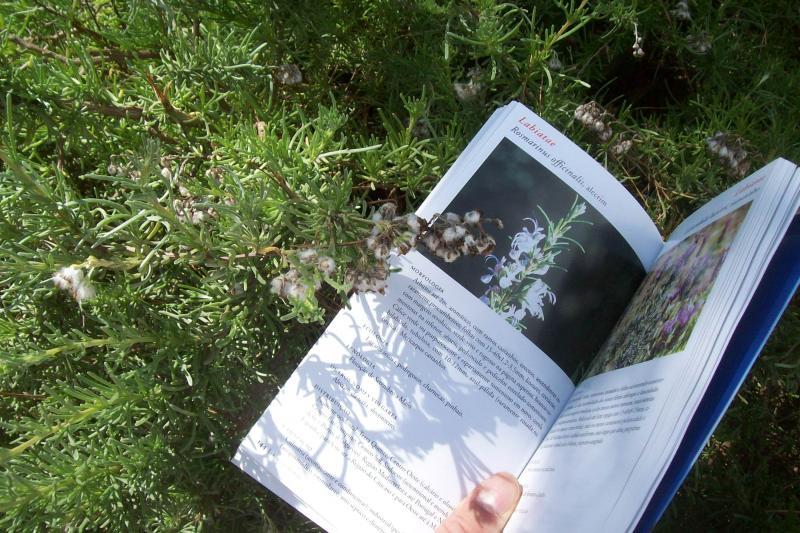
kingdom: Plantae
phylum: Tracheophyta
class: Magnoliopsida
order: Lamiales
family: Lamiaceae
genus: Salvia
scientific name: Salvia rosmarinus
